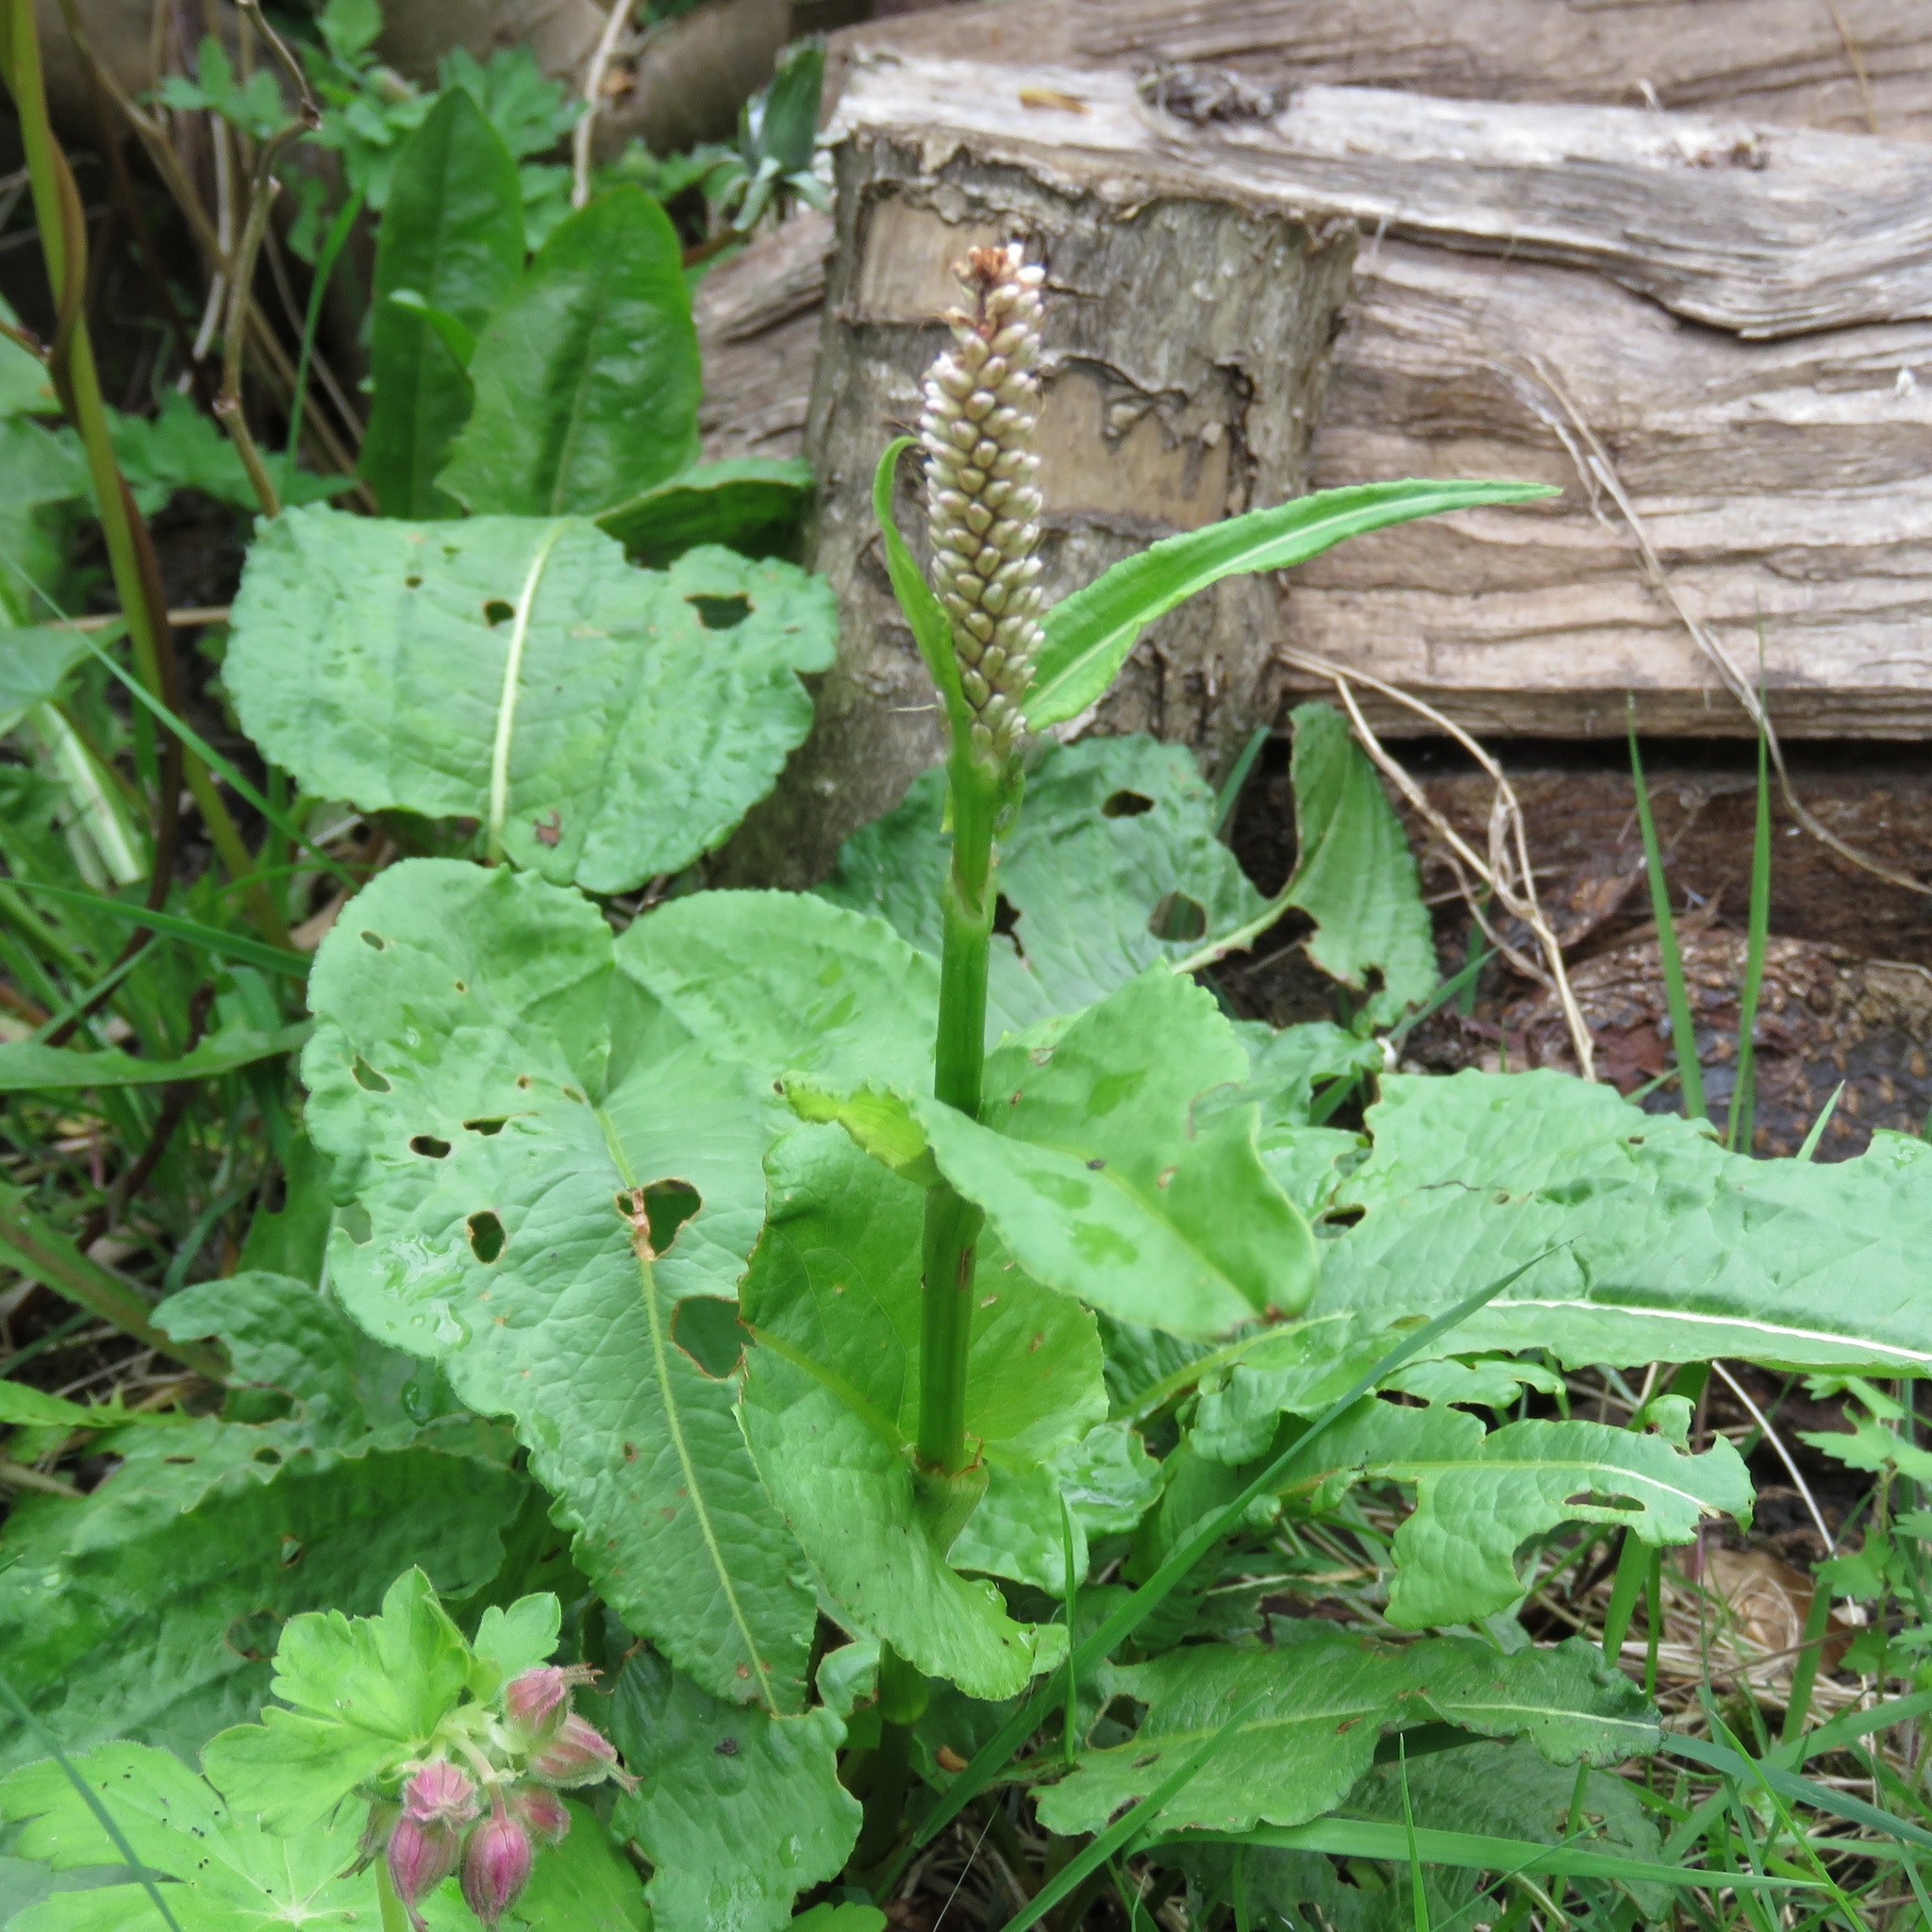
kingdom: Plantae
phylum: Tracheophyta
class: Magnoliopsida
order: Caryophyllales
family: Polygonaceae
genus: Bistorta
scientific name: Bistorta officinalis
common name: Common bistort
